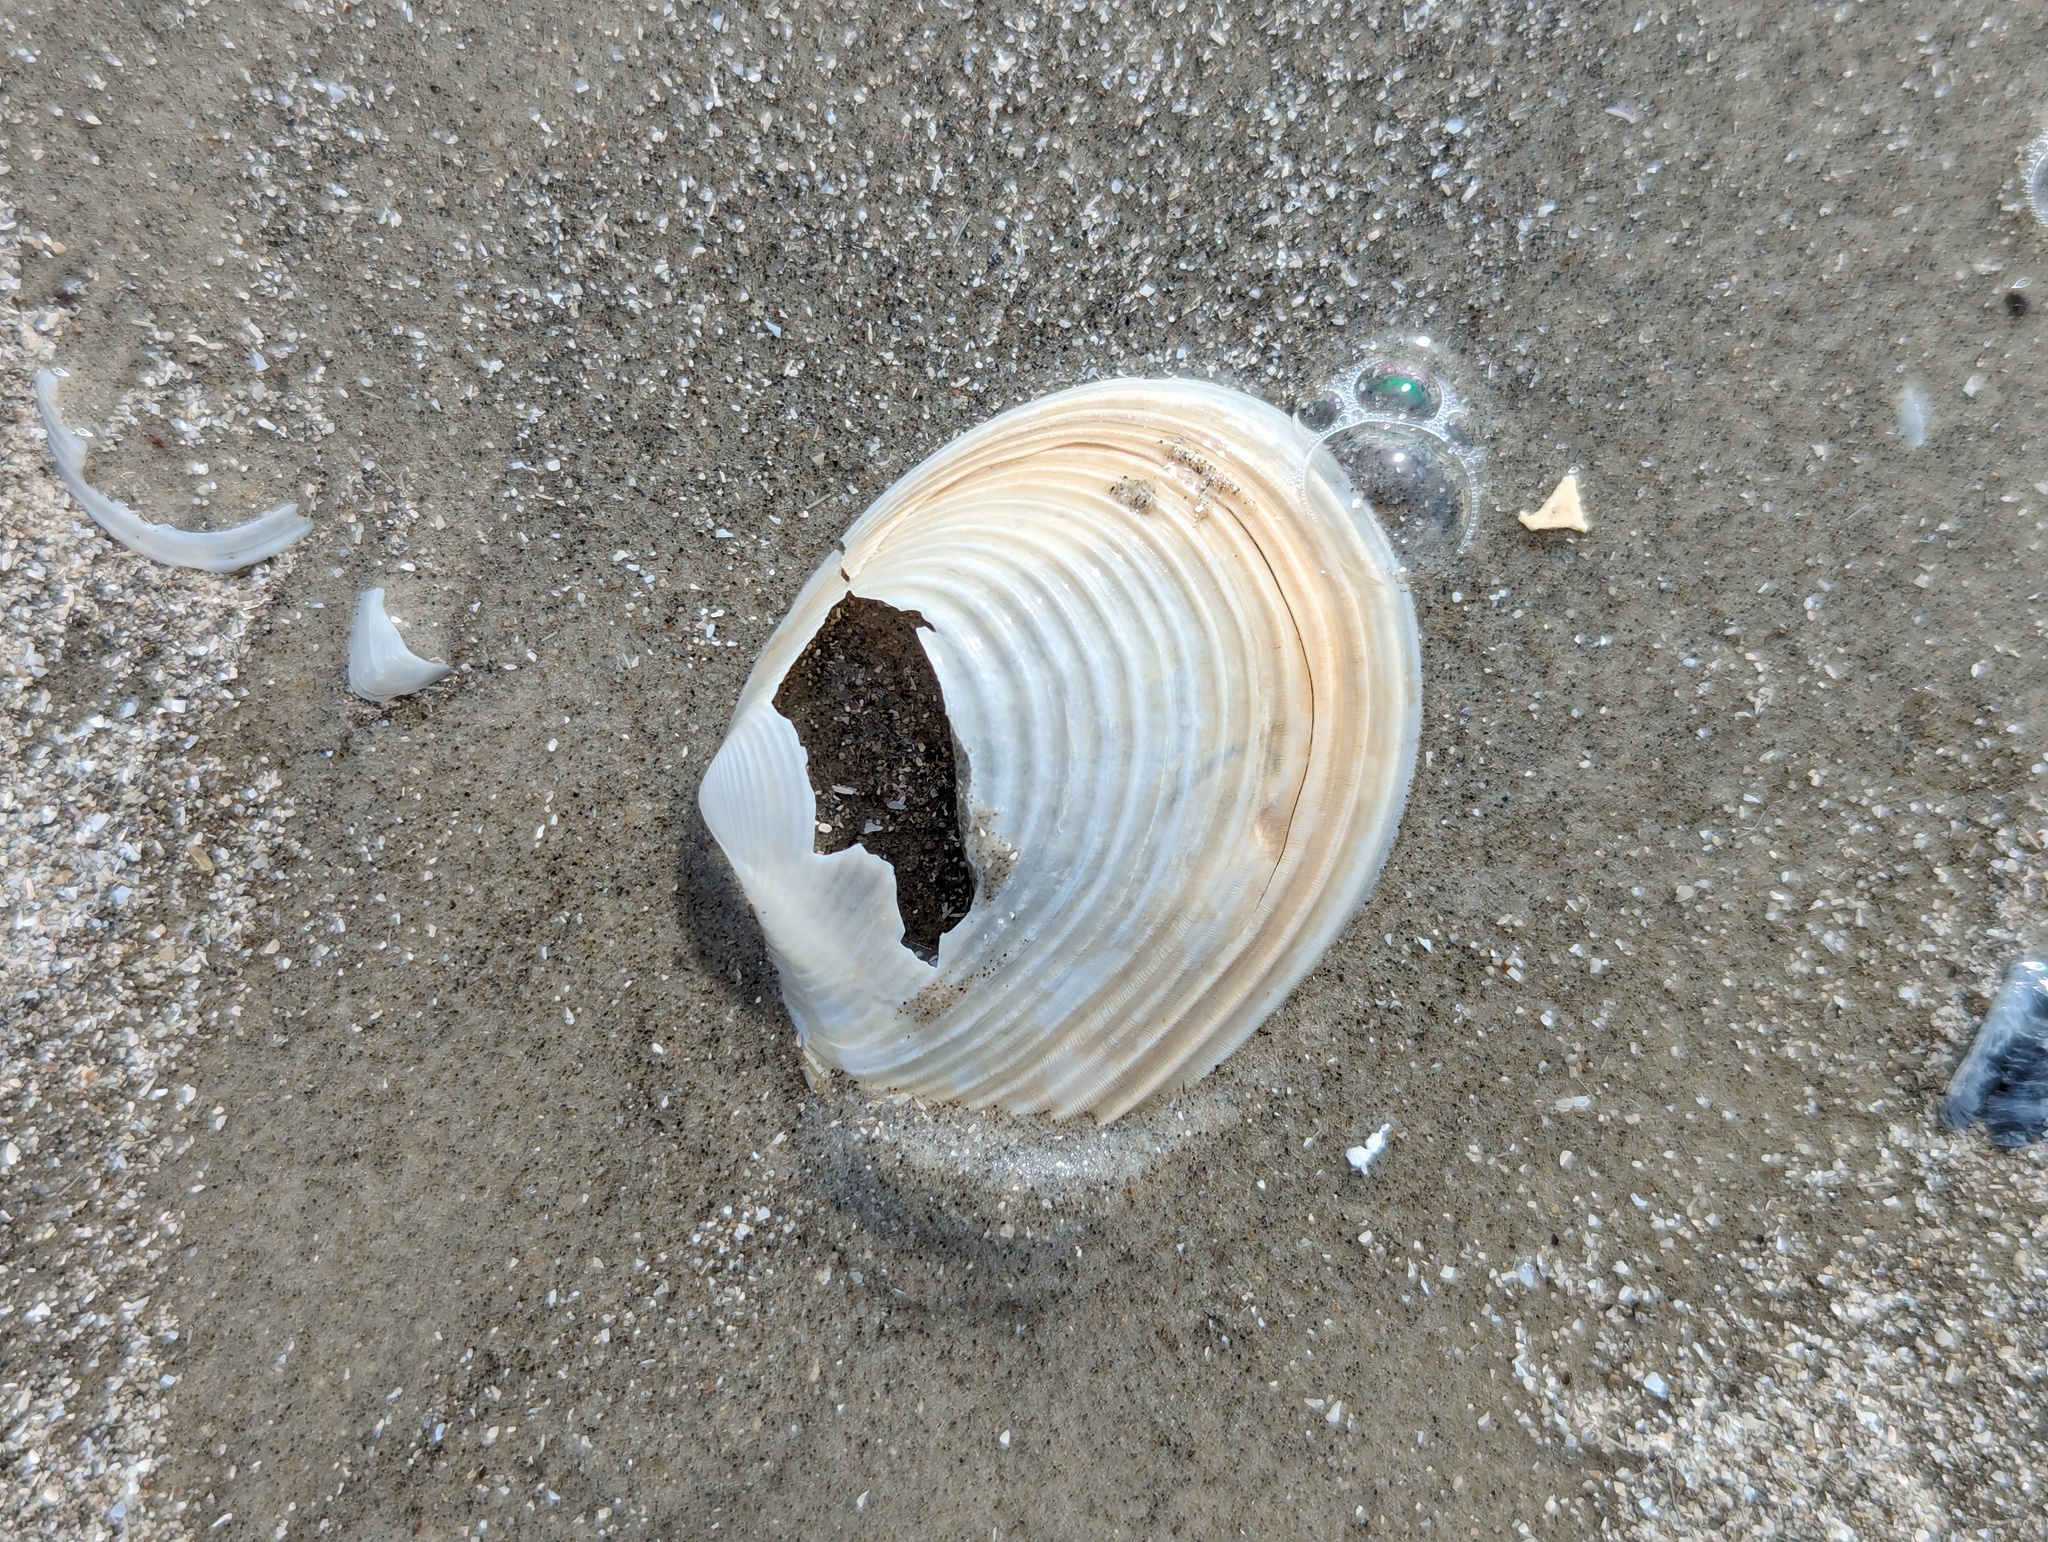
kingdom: Animalia
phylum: Mollusca
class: Bivalvia
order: Venerida
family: Anatinellidae
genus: Raeta
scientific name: Raeta plicatella
